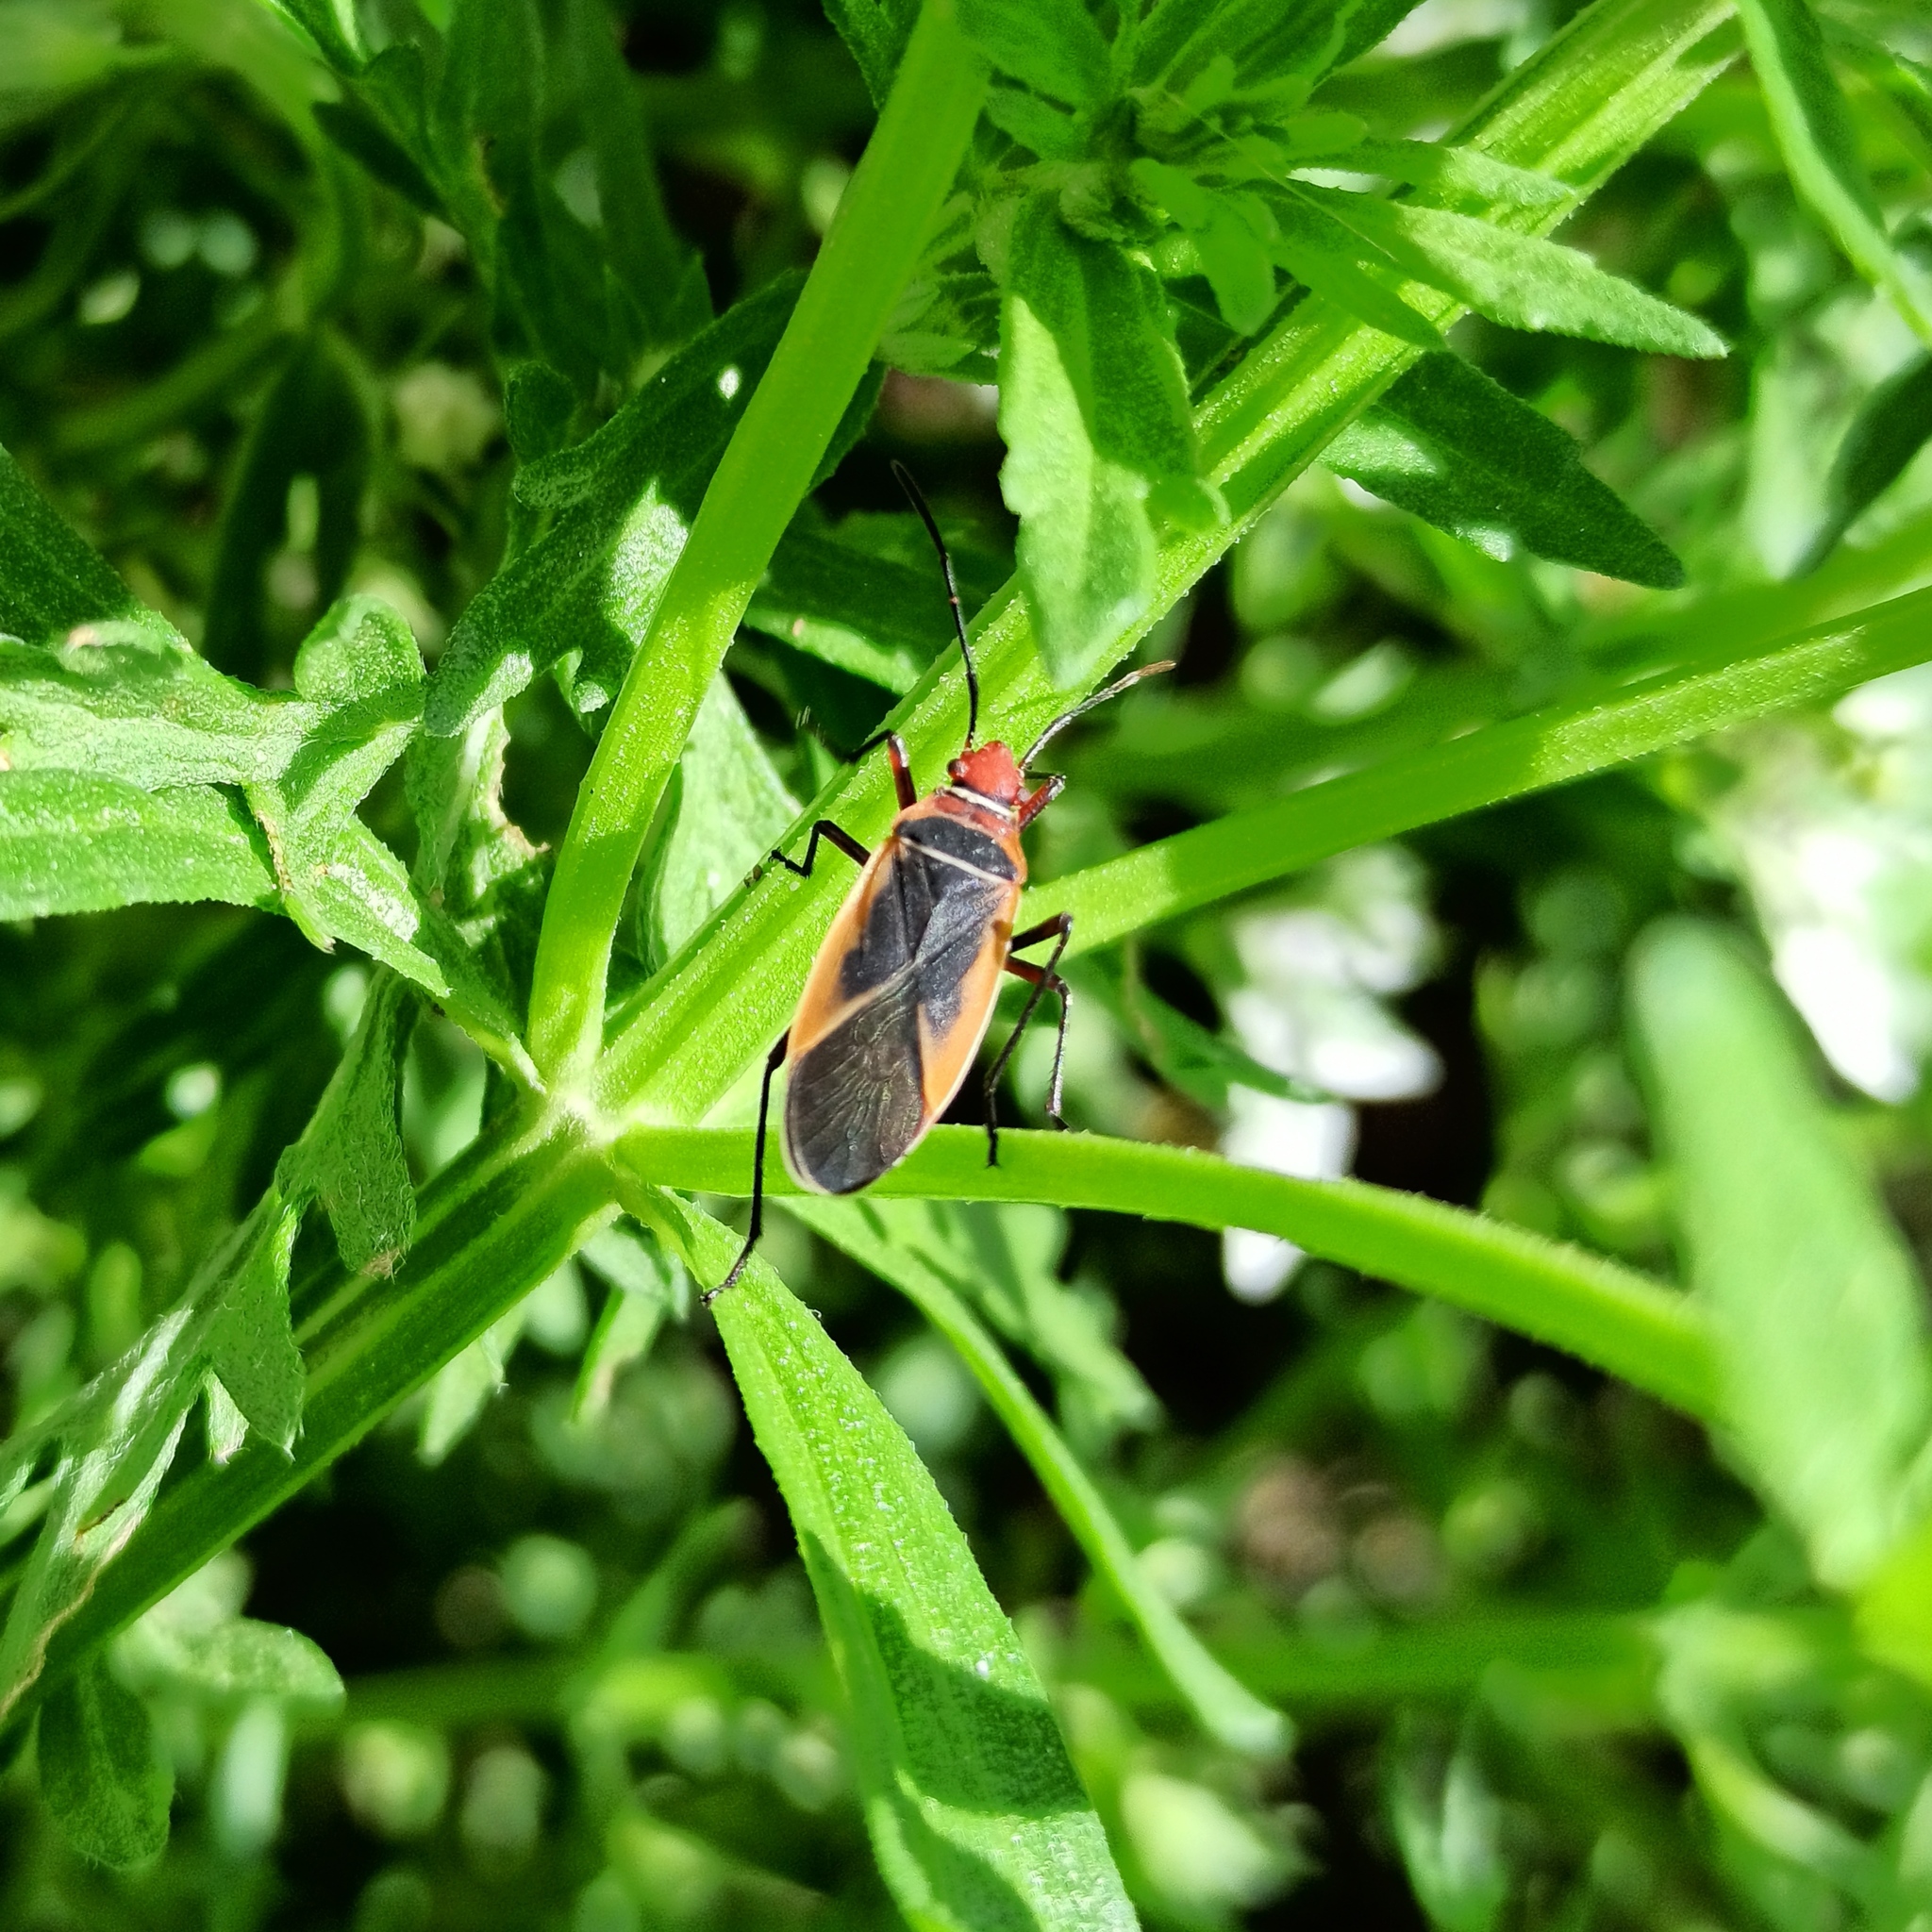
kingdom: Animalia
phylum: Arthropoda
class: Insecta
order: Hemiptera
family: Pyrrhocoridae
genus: Dysdercus
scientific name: Dysdercus mimulus
